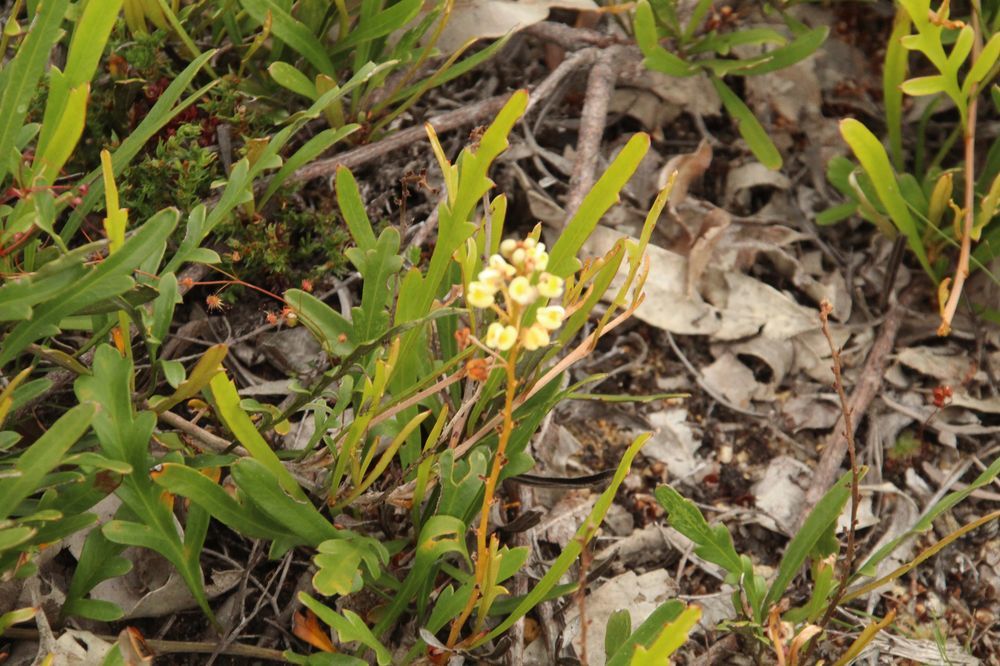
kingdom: Plantae
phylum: Tracheophyta
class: Magnoliopsida
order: Proteales
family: Proteaceae
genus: Grevillea
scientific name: Grevillea cirsiifolia
